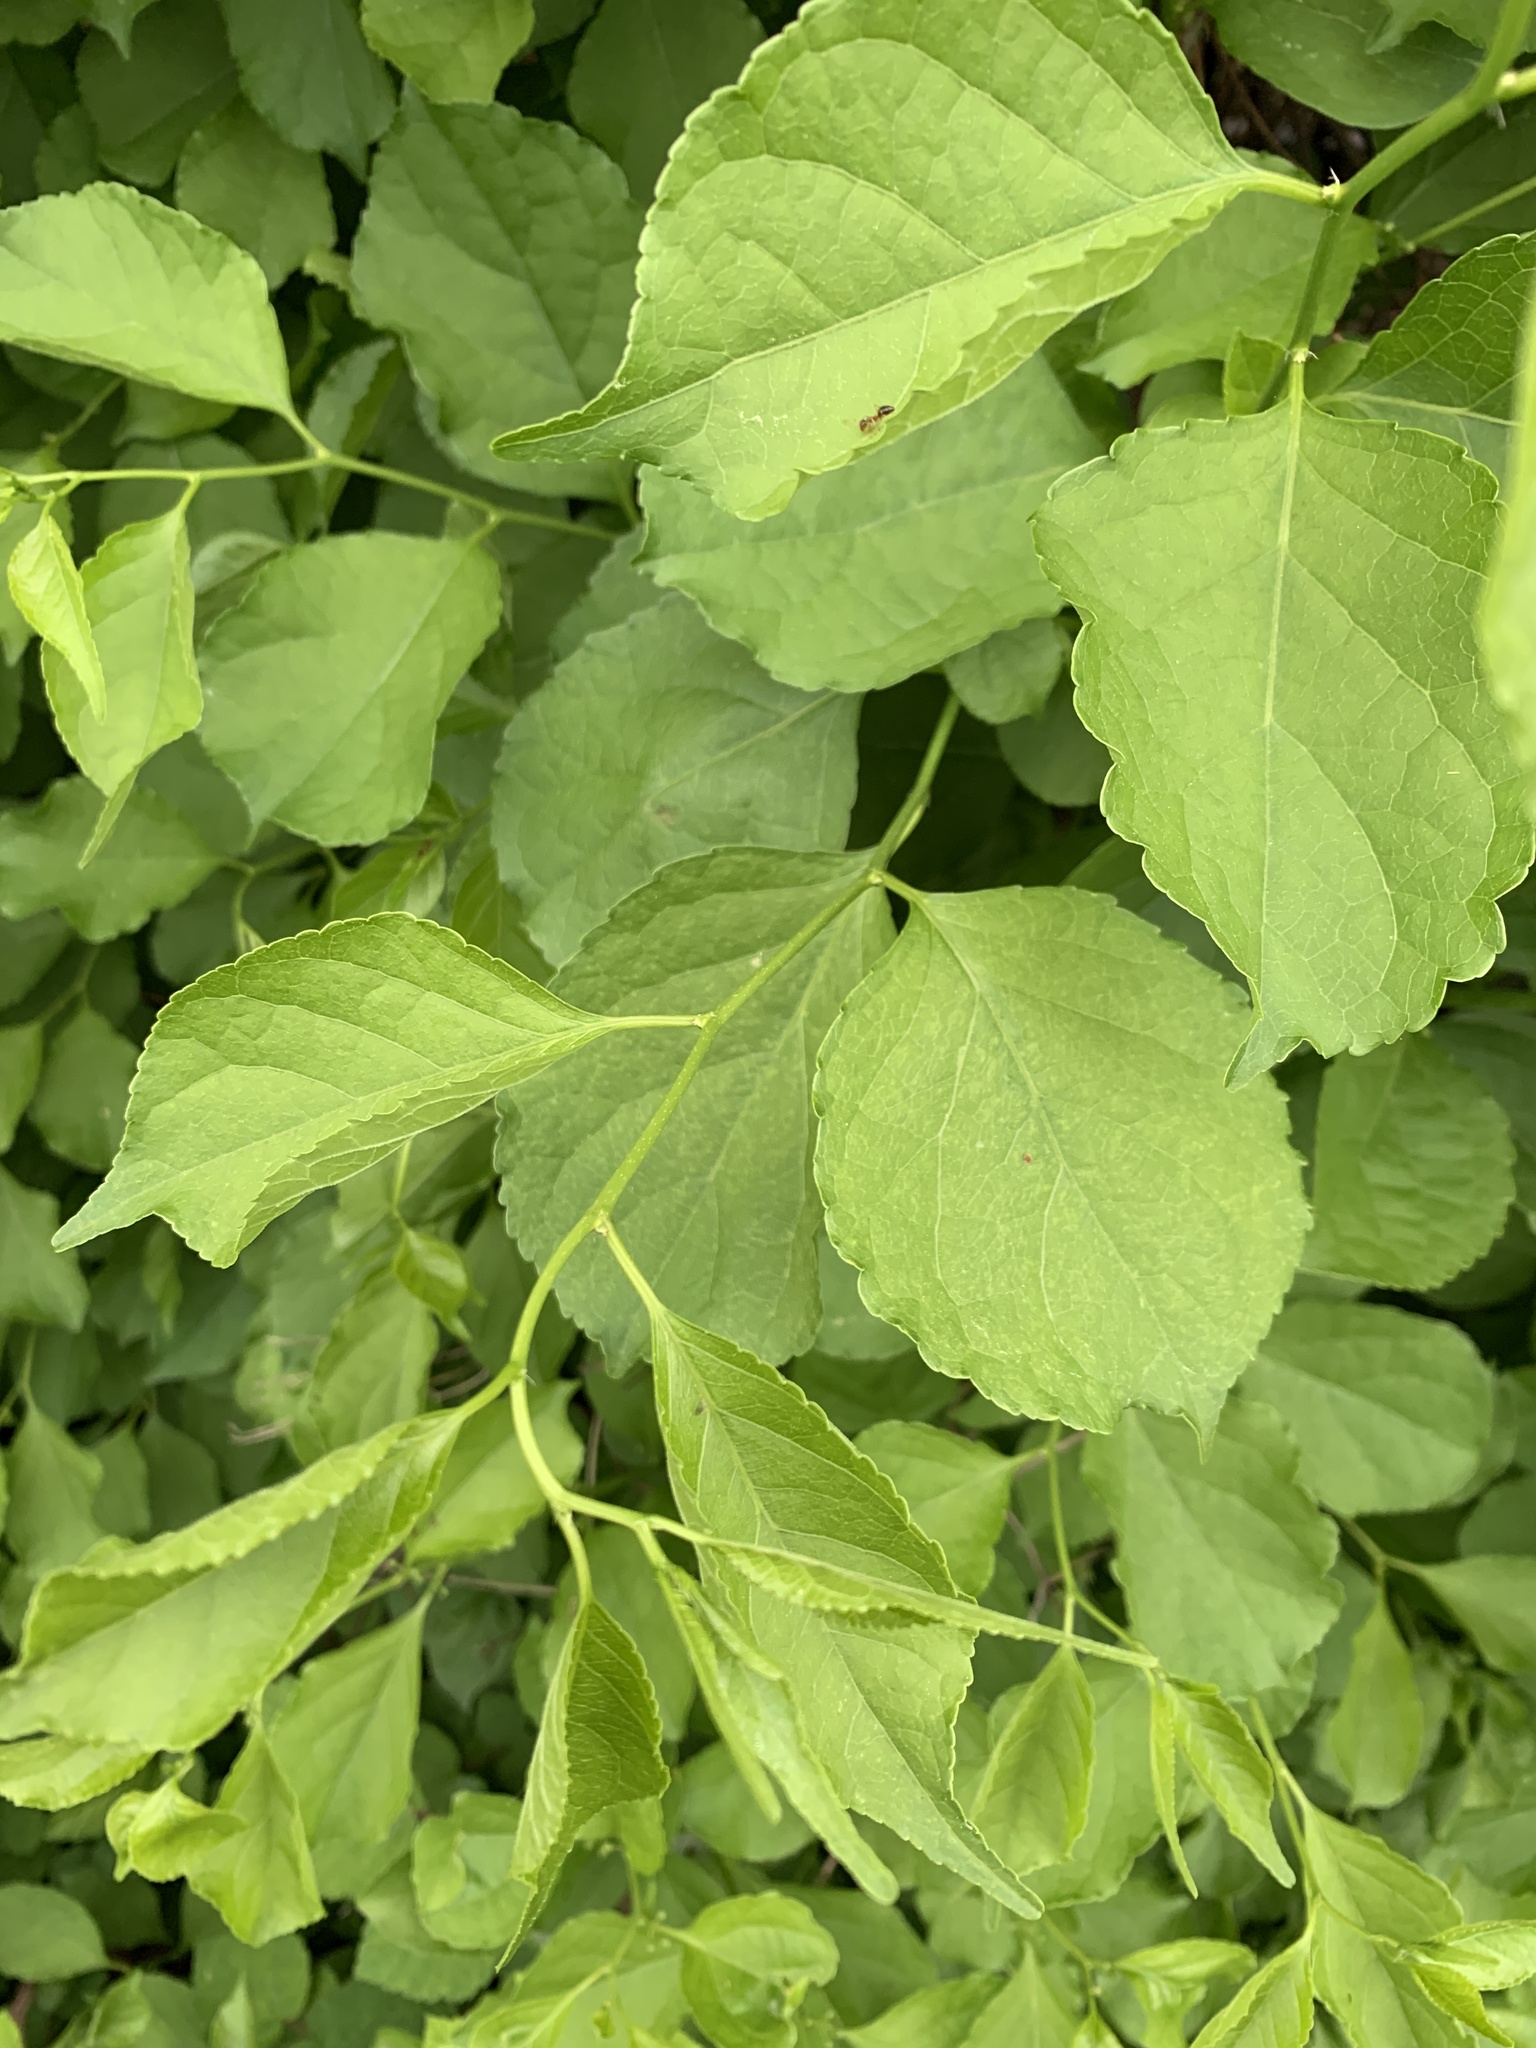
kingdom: Plantae
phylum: Tracheophyta
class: Magnoliopsida
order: Celastrales
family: Celastraceae
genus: Celastrus
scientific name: Celastrus orbiculatus
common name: Oriental bittersweet
